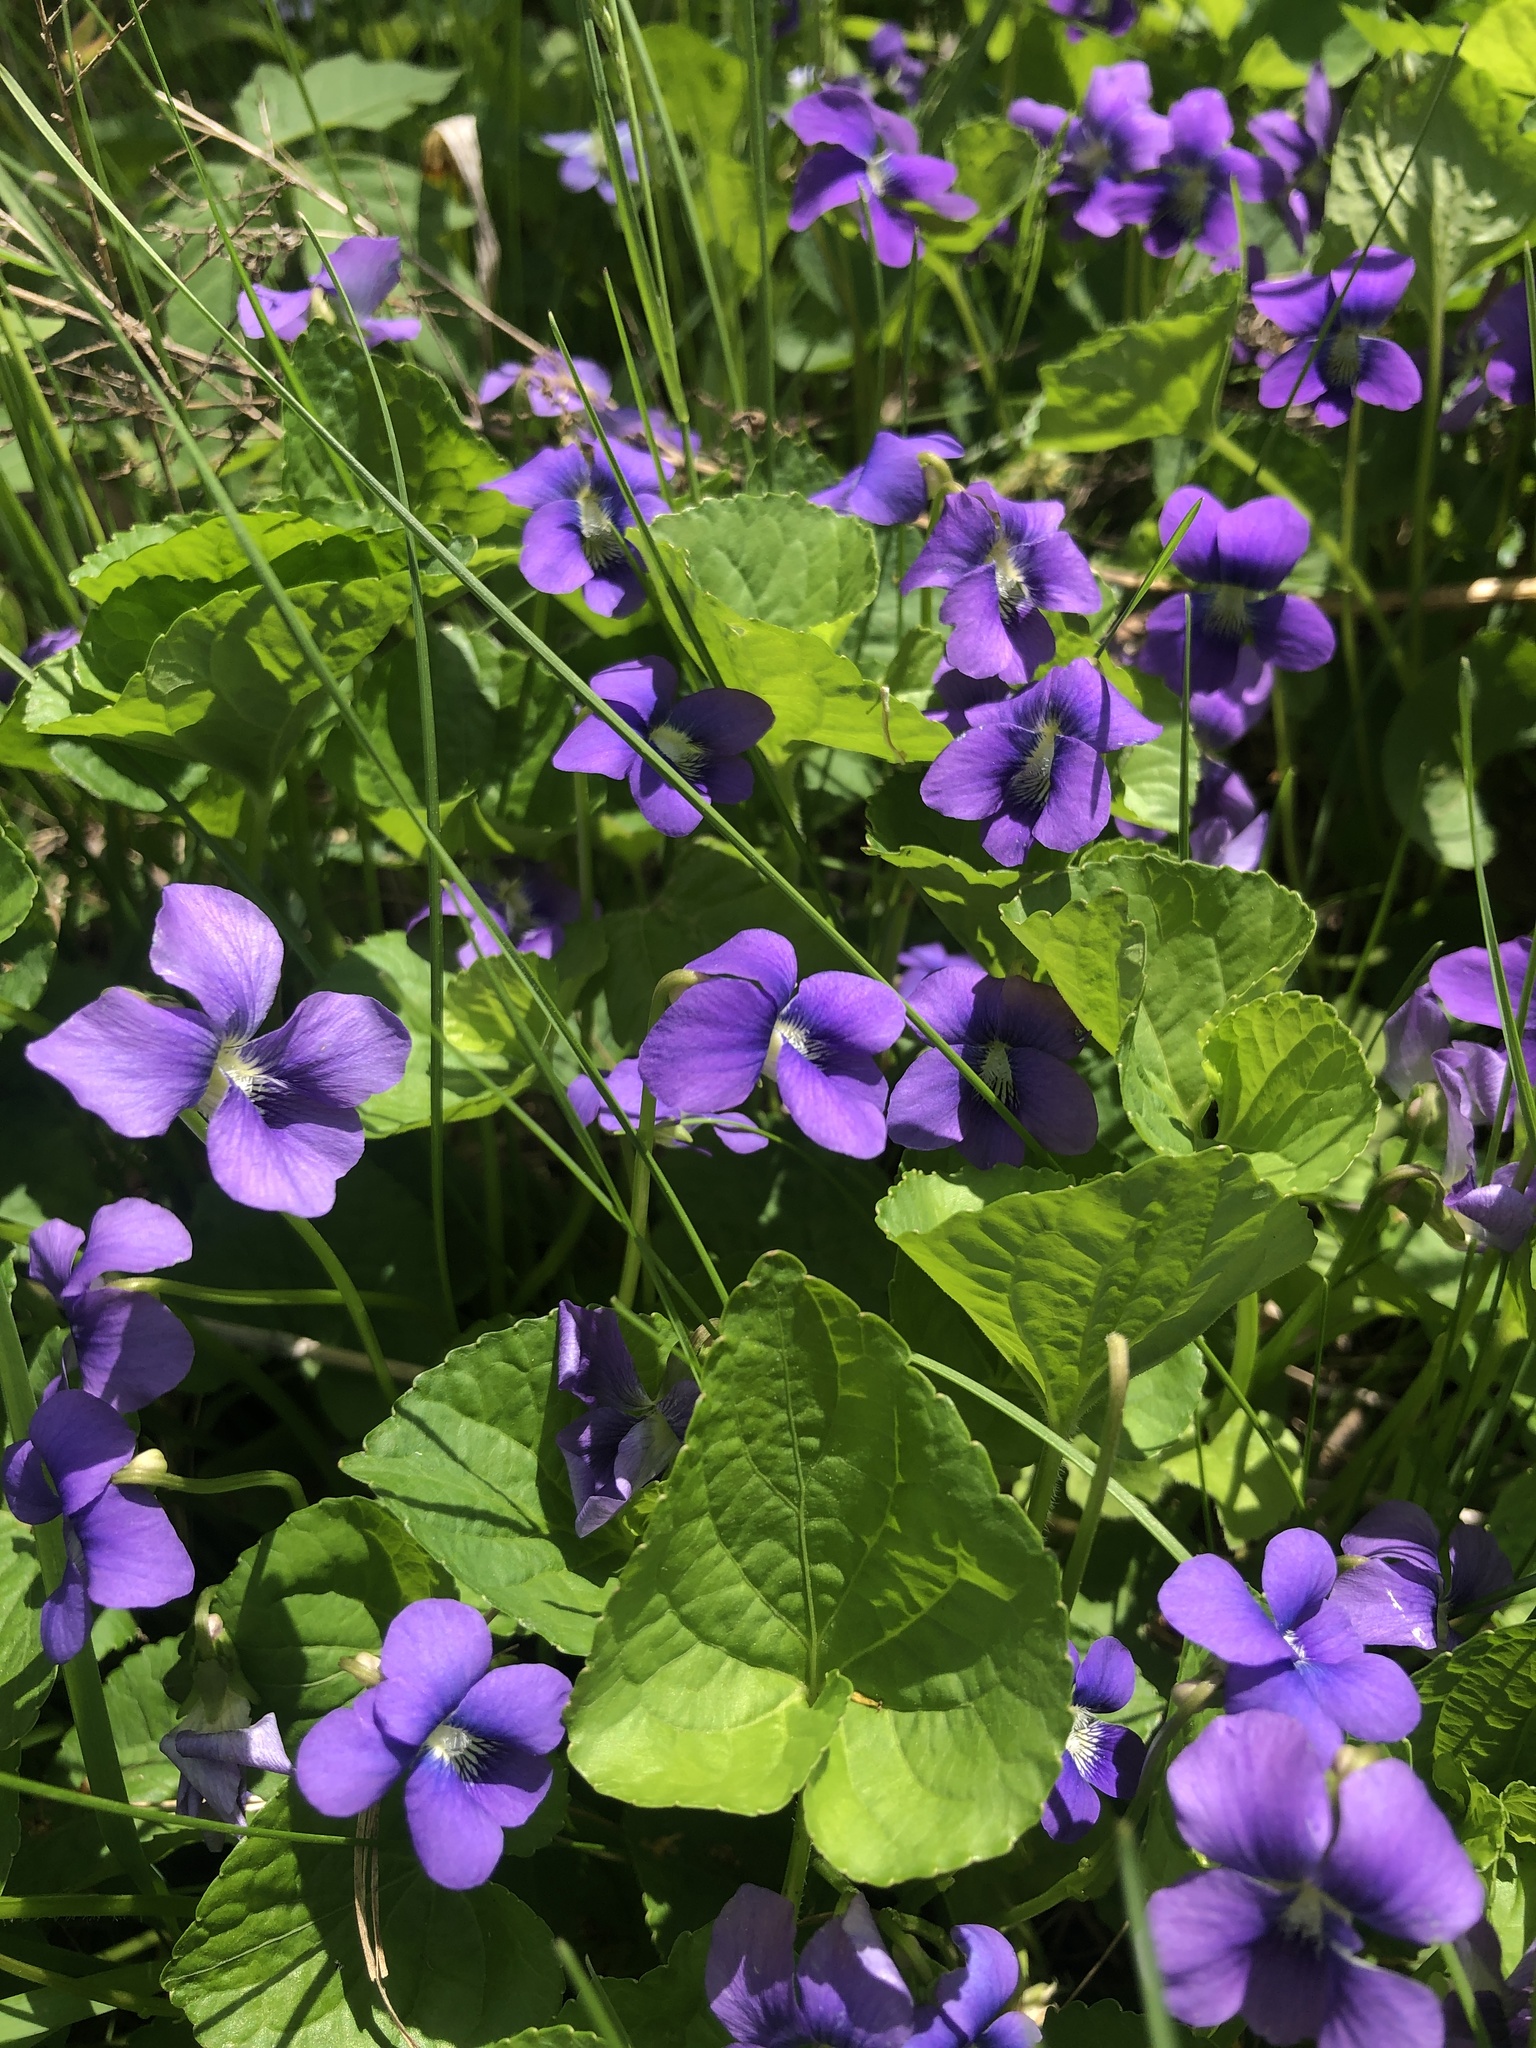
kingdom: Plantae
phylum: Tracheophyta
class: Magnoliopsida
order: Malpighiales
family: Violaceae
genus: Viola
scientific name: Viola sororia
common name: Dooryard violet
